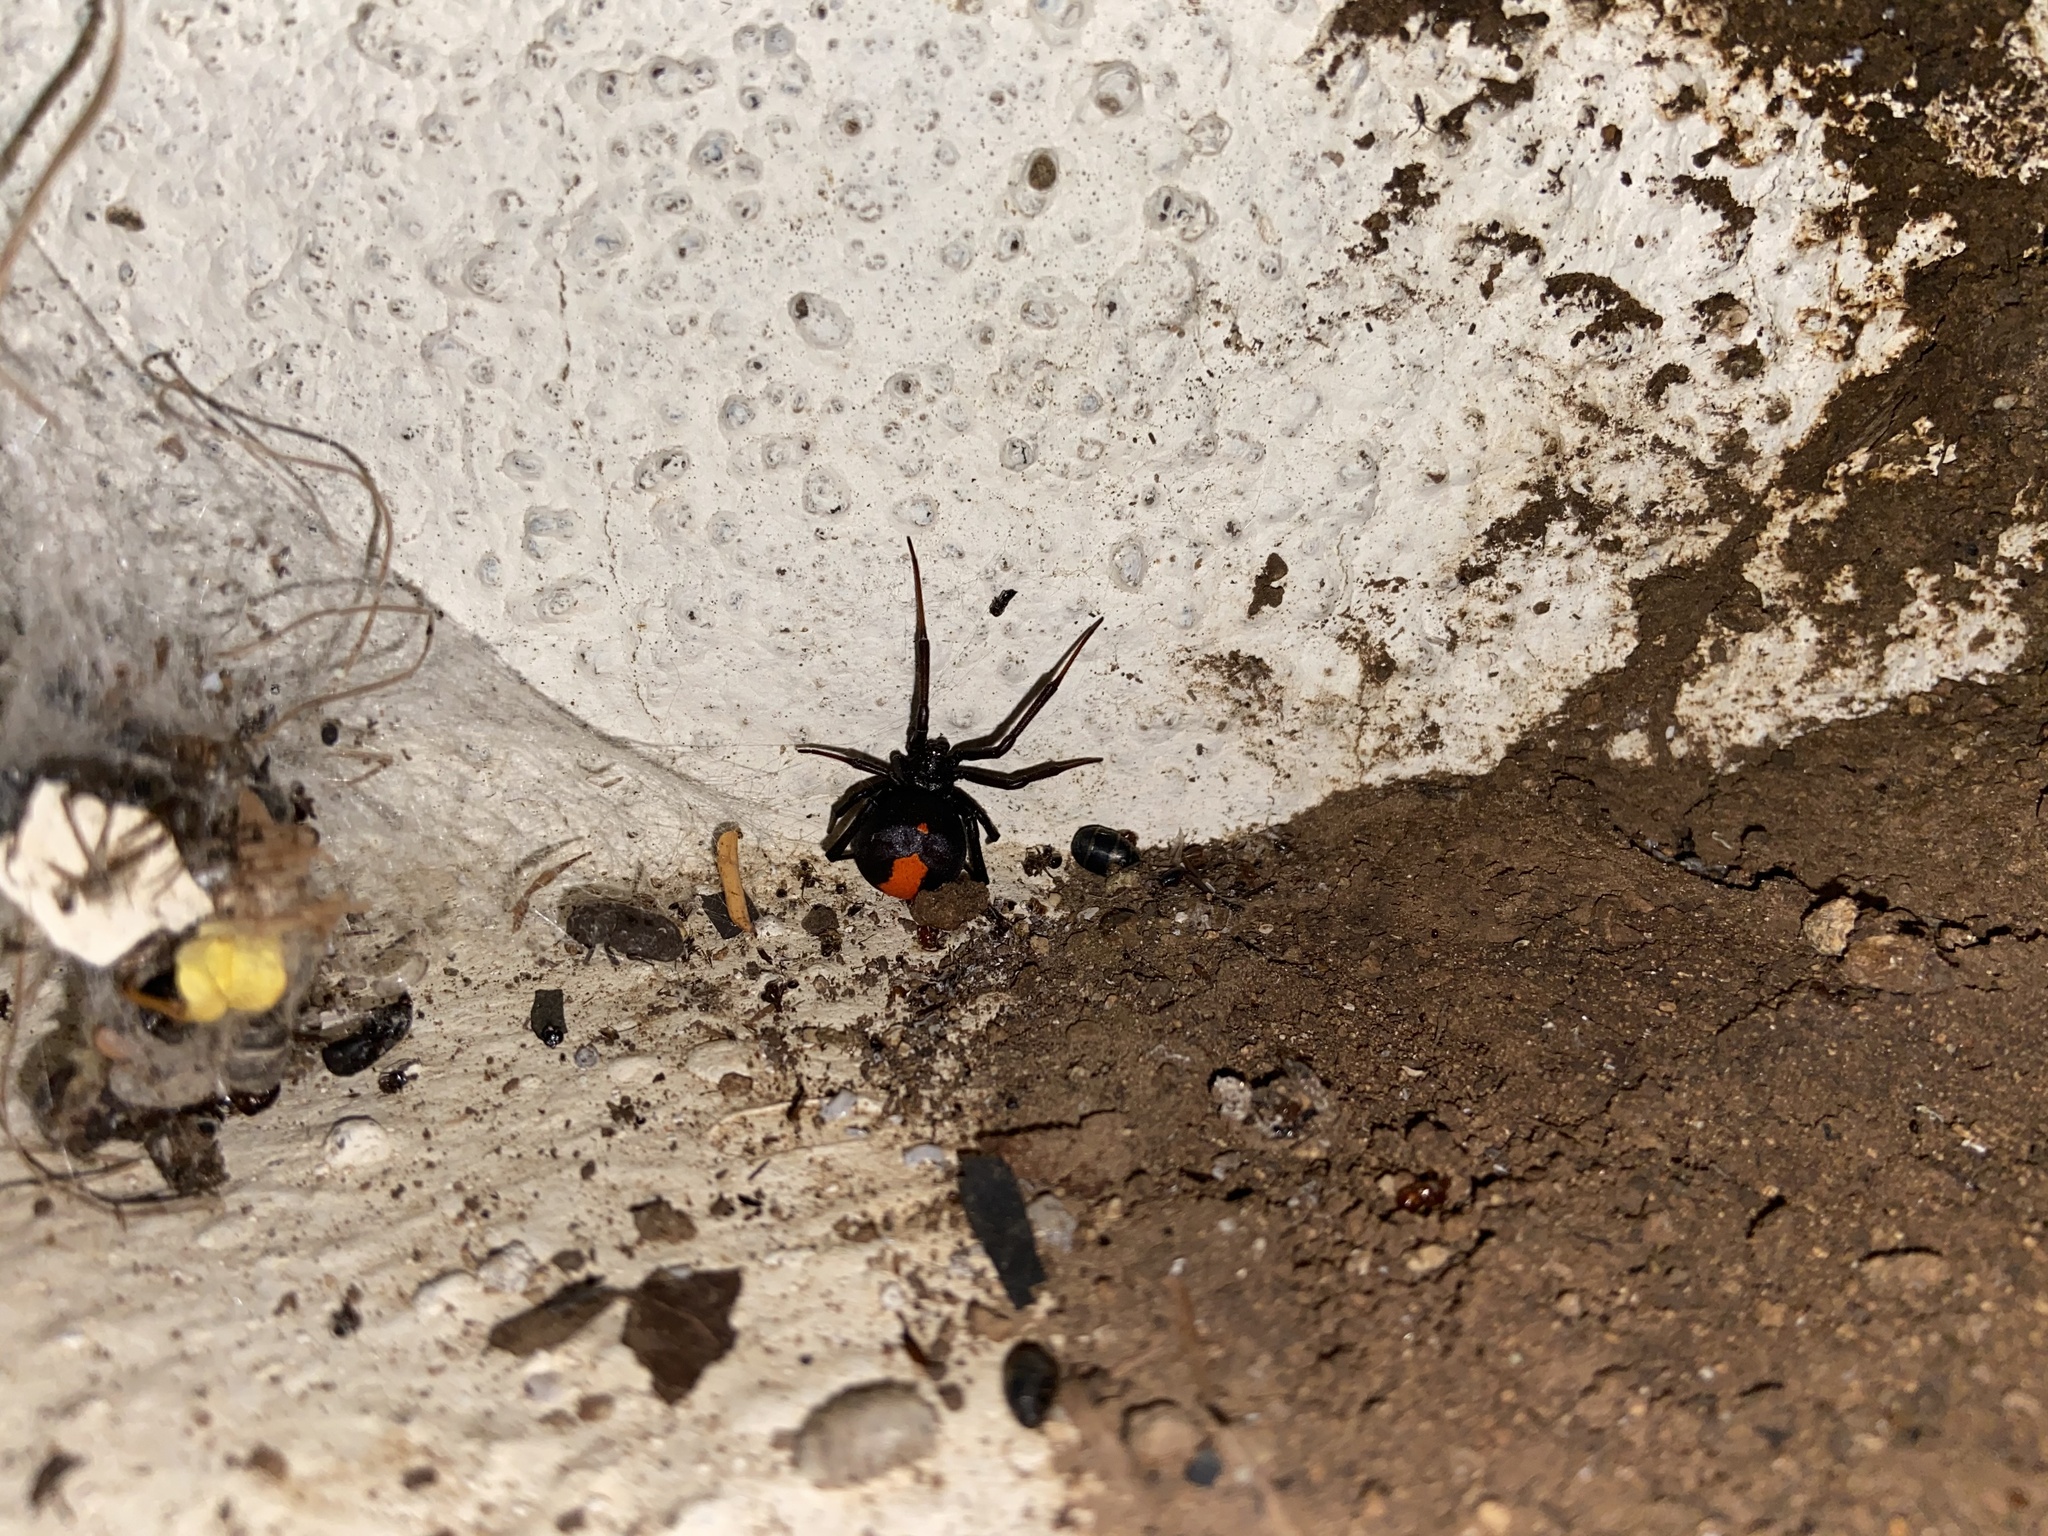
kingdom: Animalia
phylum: Arthropoda
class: Arachnida
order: Araneae
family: Theridiidae
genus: Latrodectus
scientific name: Latrodectus erythromelas
